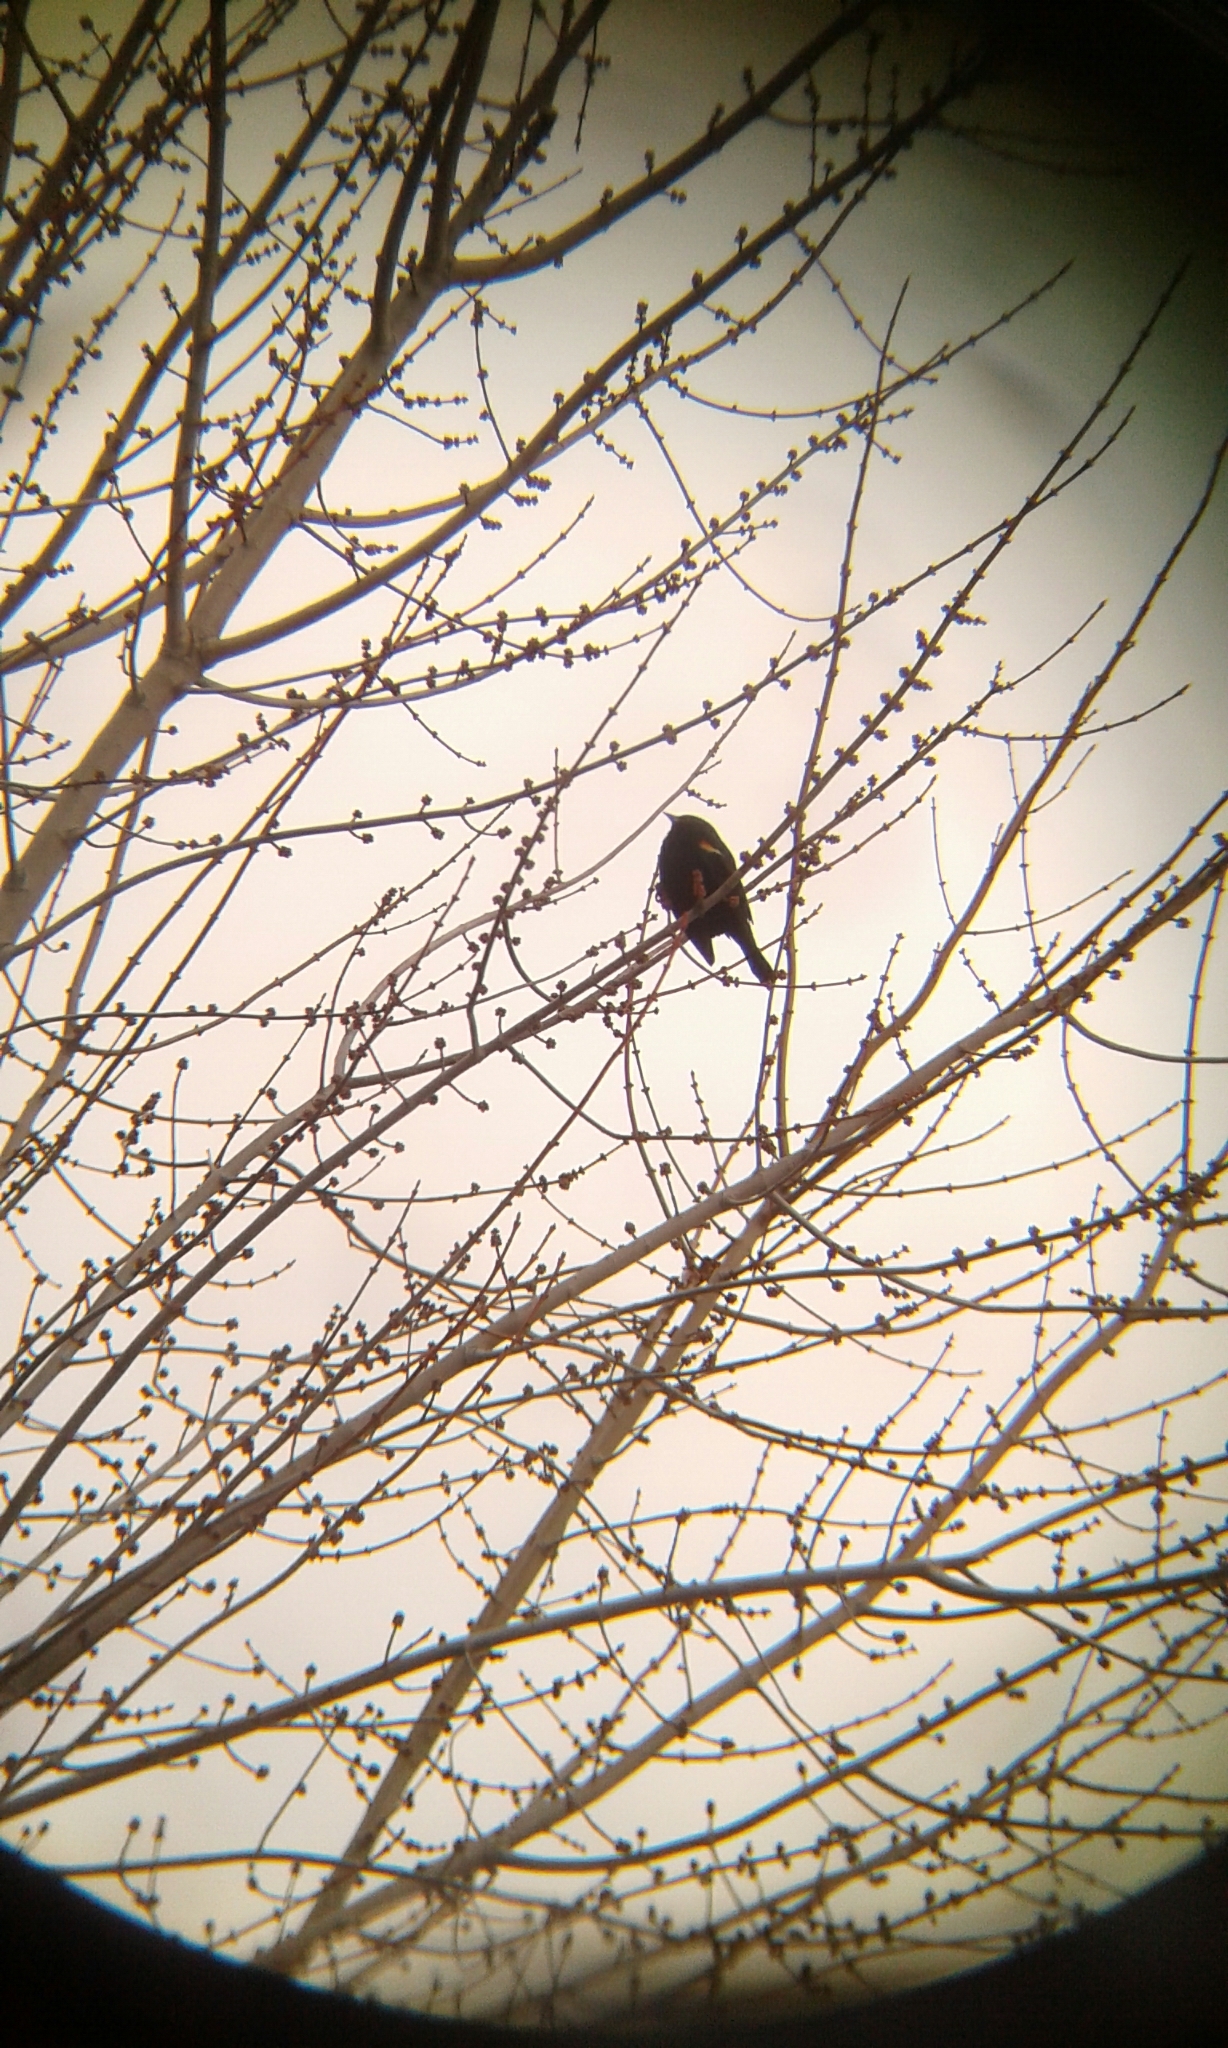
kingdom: Animalia
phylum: Chordata
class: Aves
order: Passeriformes
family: Icteridae
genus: Agelaius
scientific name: Agelaius phoeniceus
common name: Red-winged blackbird
